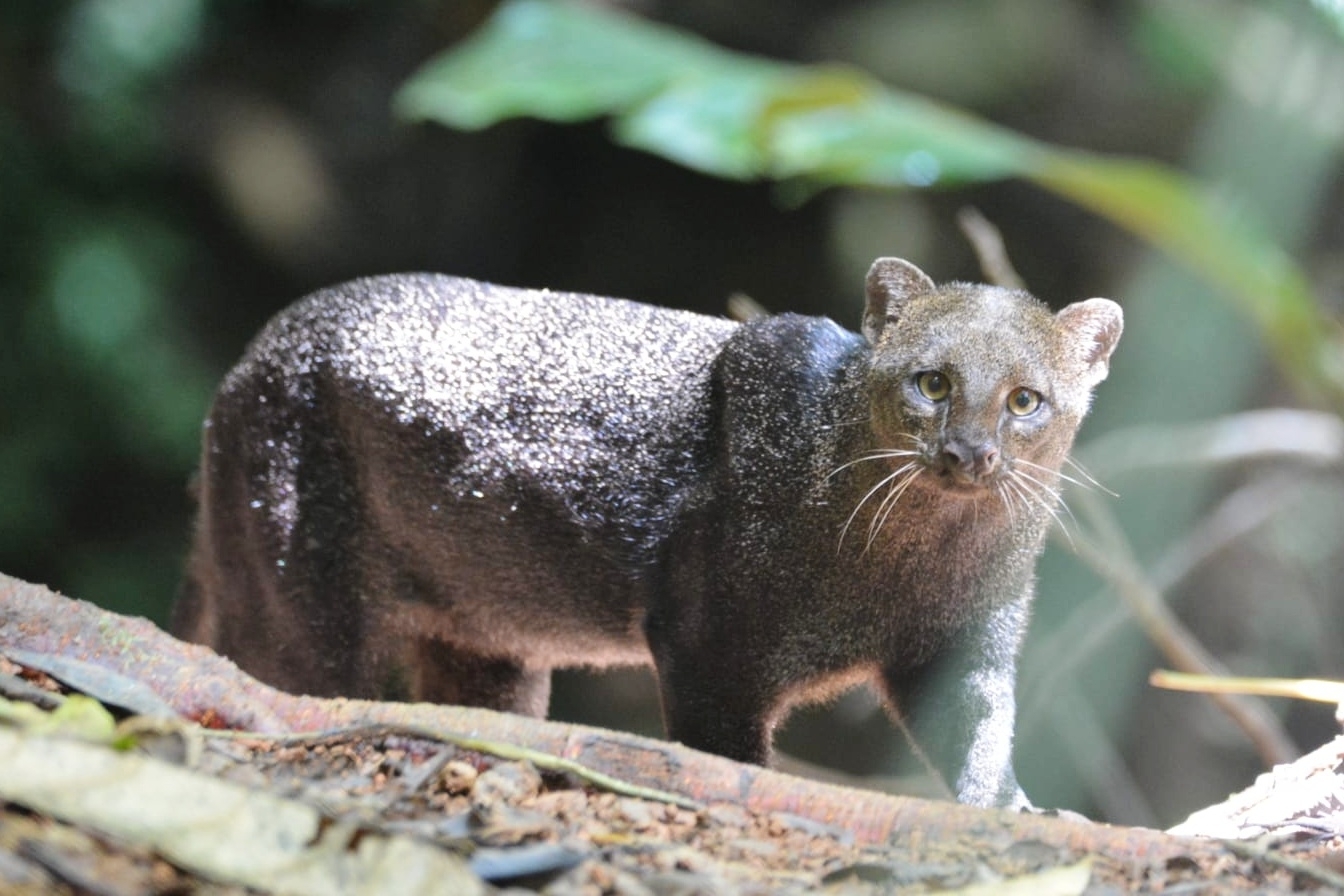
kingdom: Animalia
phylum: Chordata
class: Mammalia
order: Carnivora
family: Felidae
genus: Puma
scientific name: Puma yagouaroundi
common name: Jaguarundi
